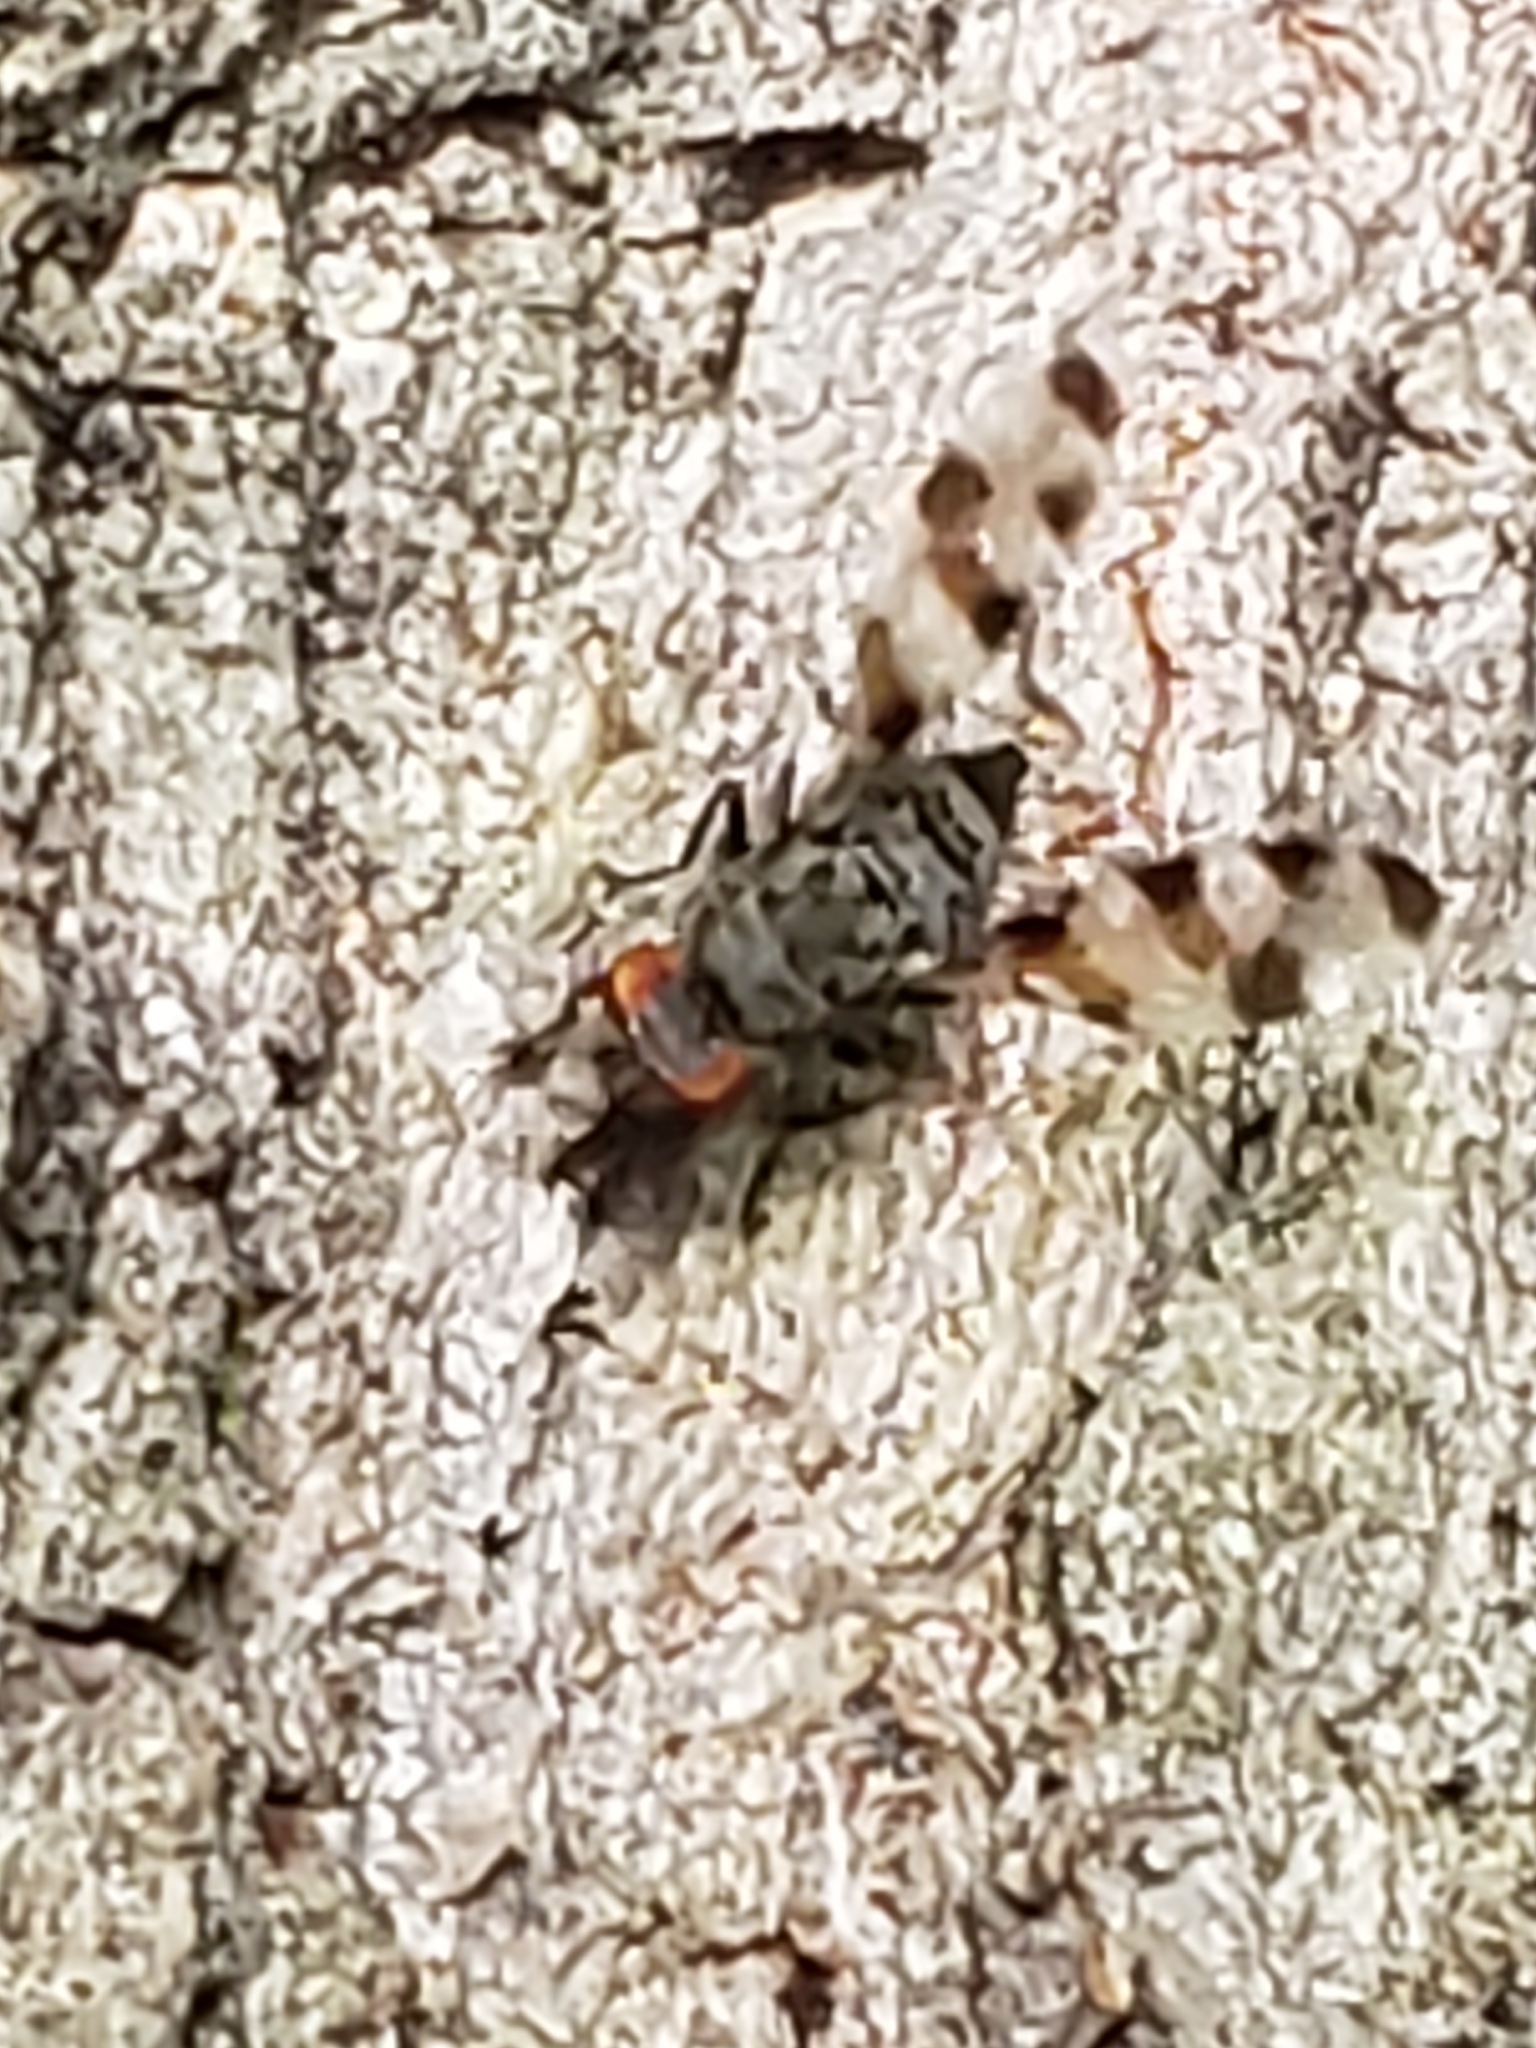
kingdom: Animalia
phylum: Arthropoda
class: Insecta
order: Diptera
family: Ulidiidae
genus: Pseudotephritis
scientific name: Pseudotephritis vau
